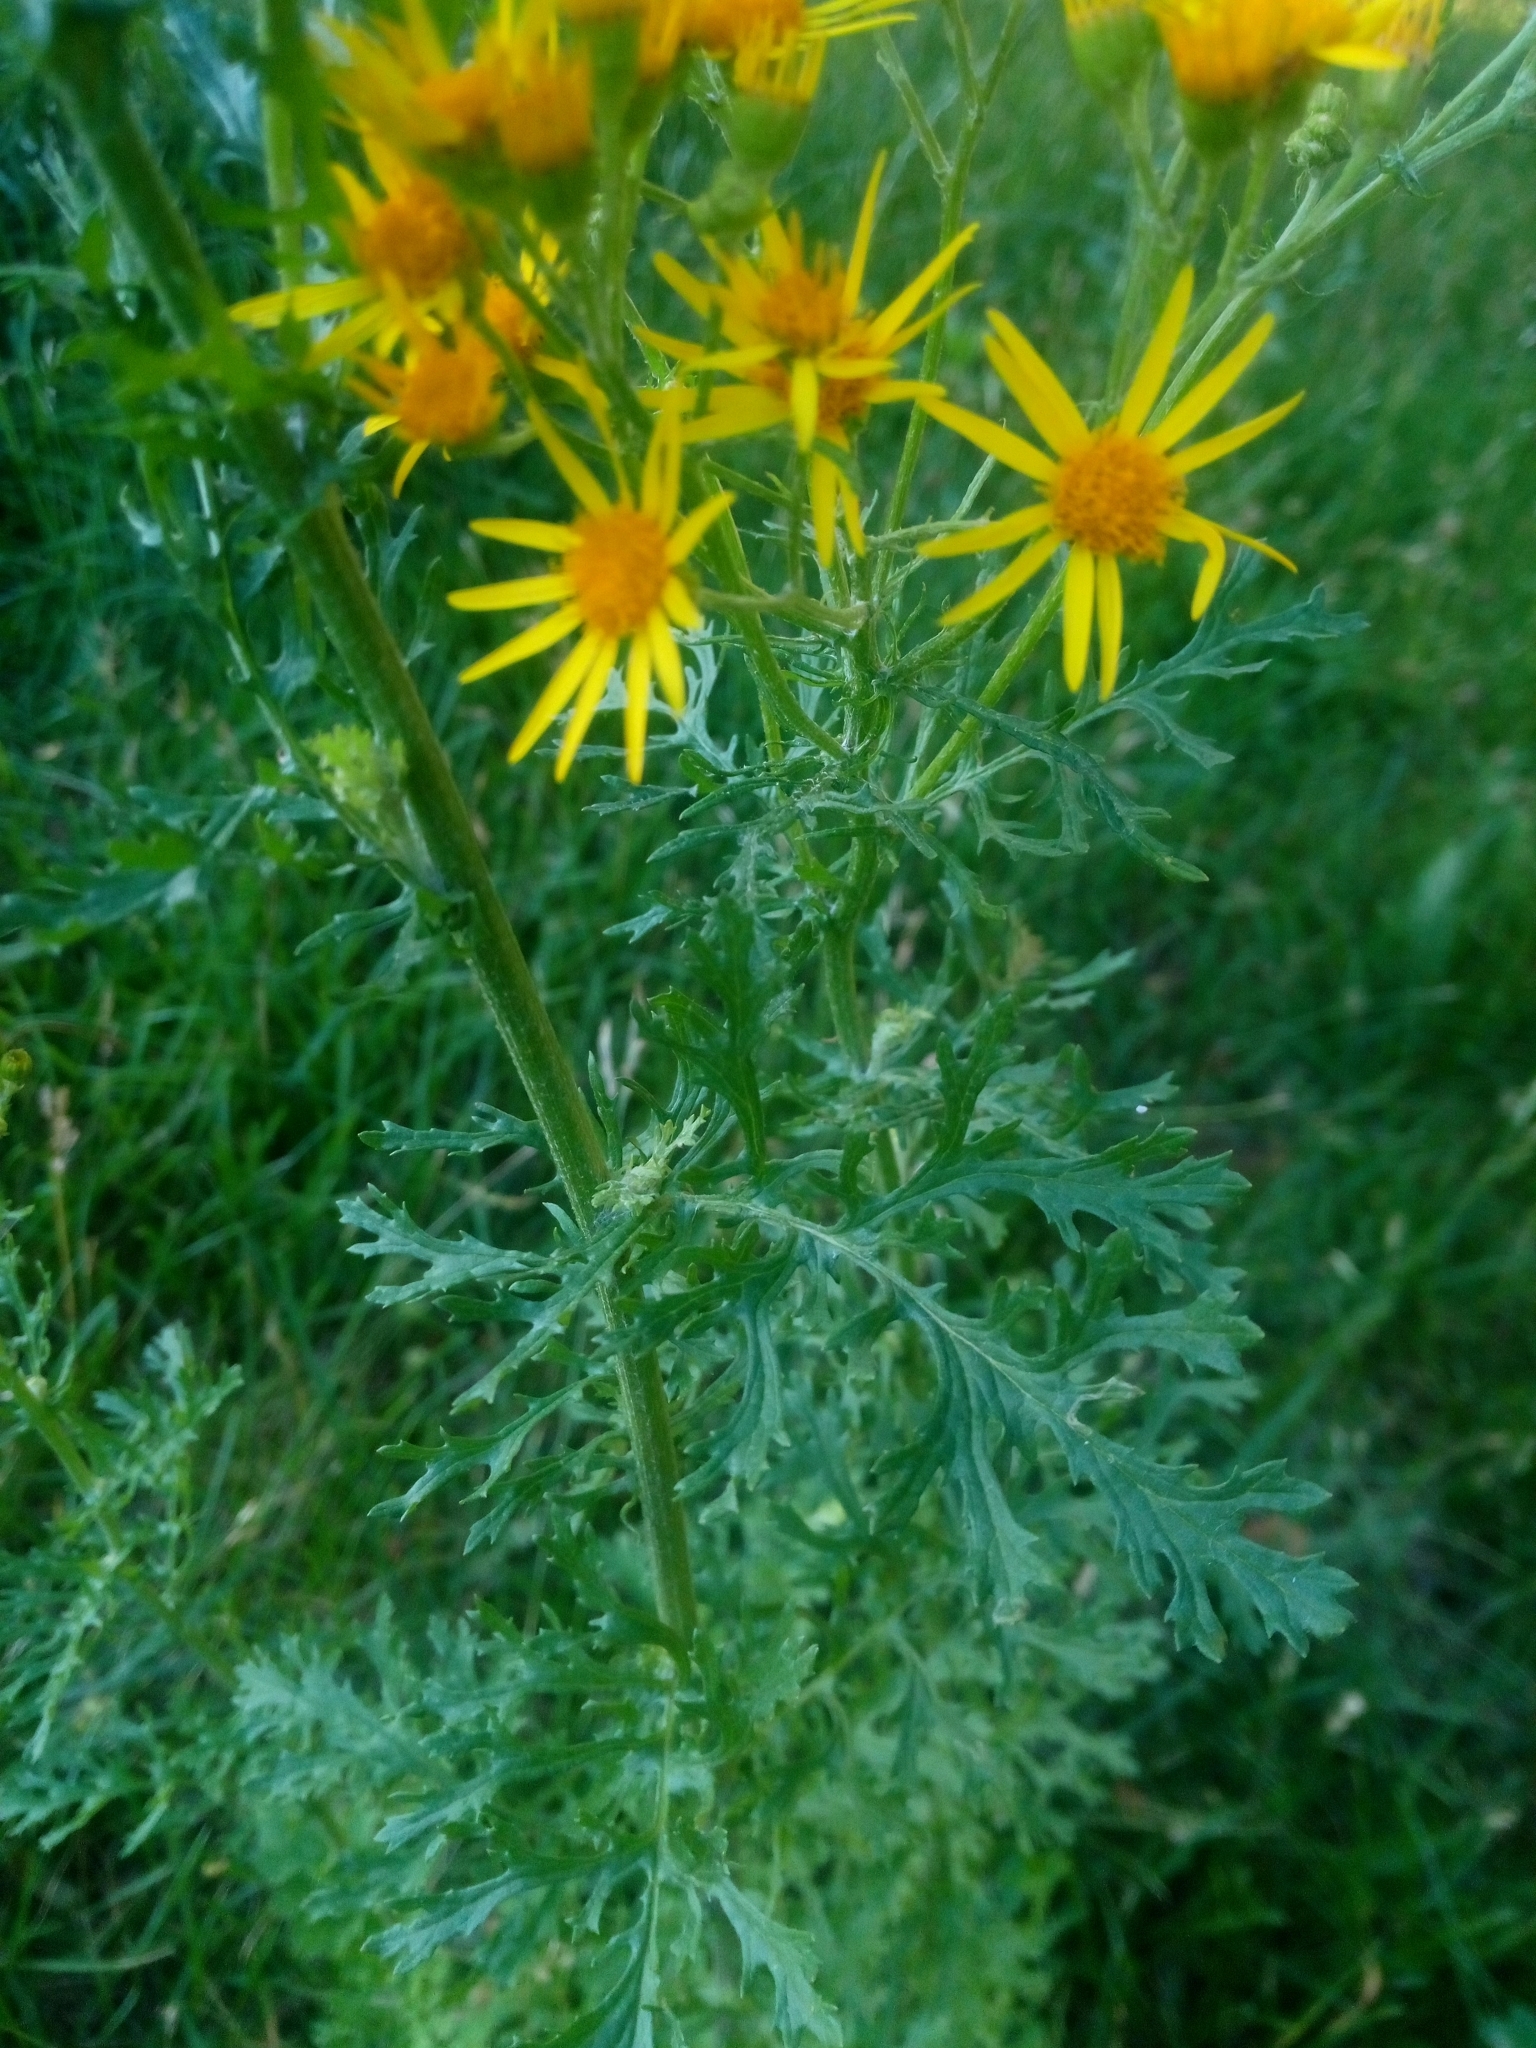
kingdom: Plantae
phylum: Tracheophyta
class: Magnoliopsida
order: Asterales
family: Asteraceae
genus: Jacobaea
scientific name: Jacobaea vulgaris
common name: Stinking willie
